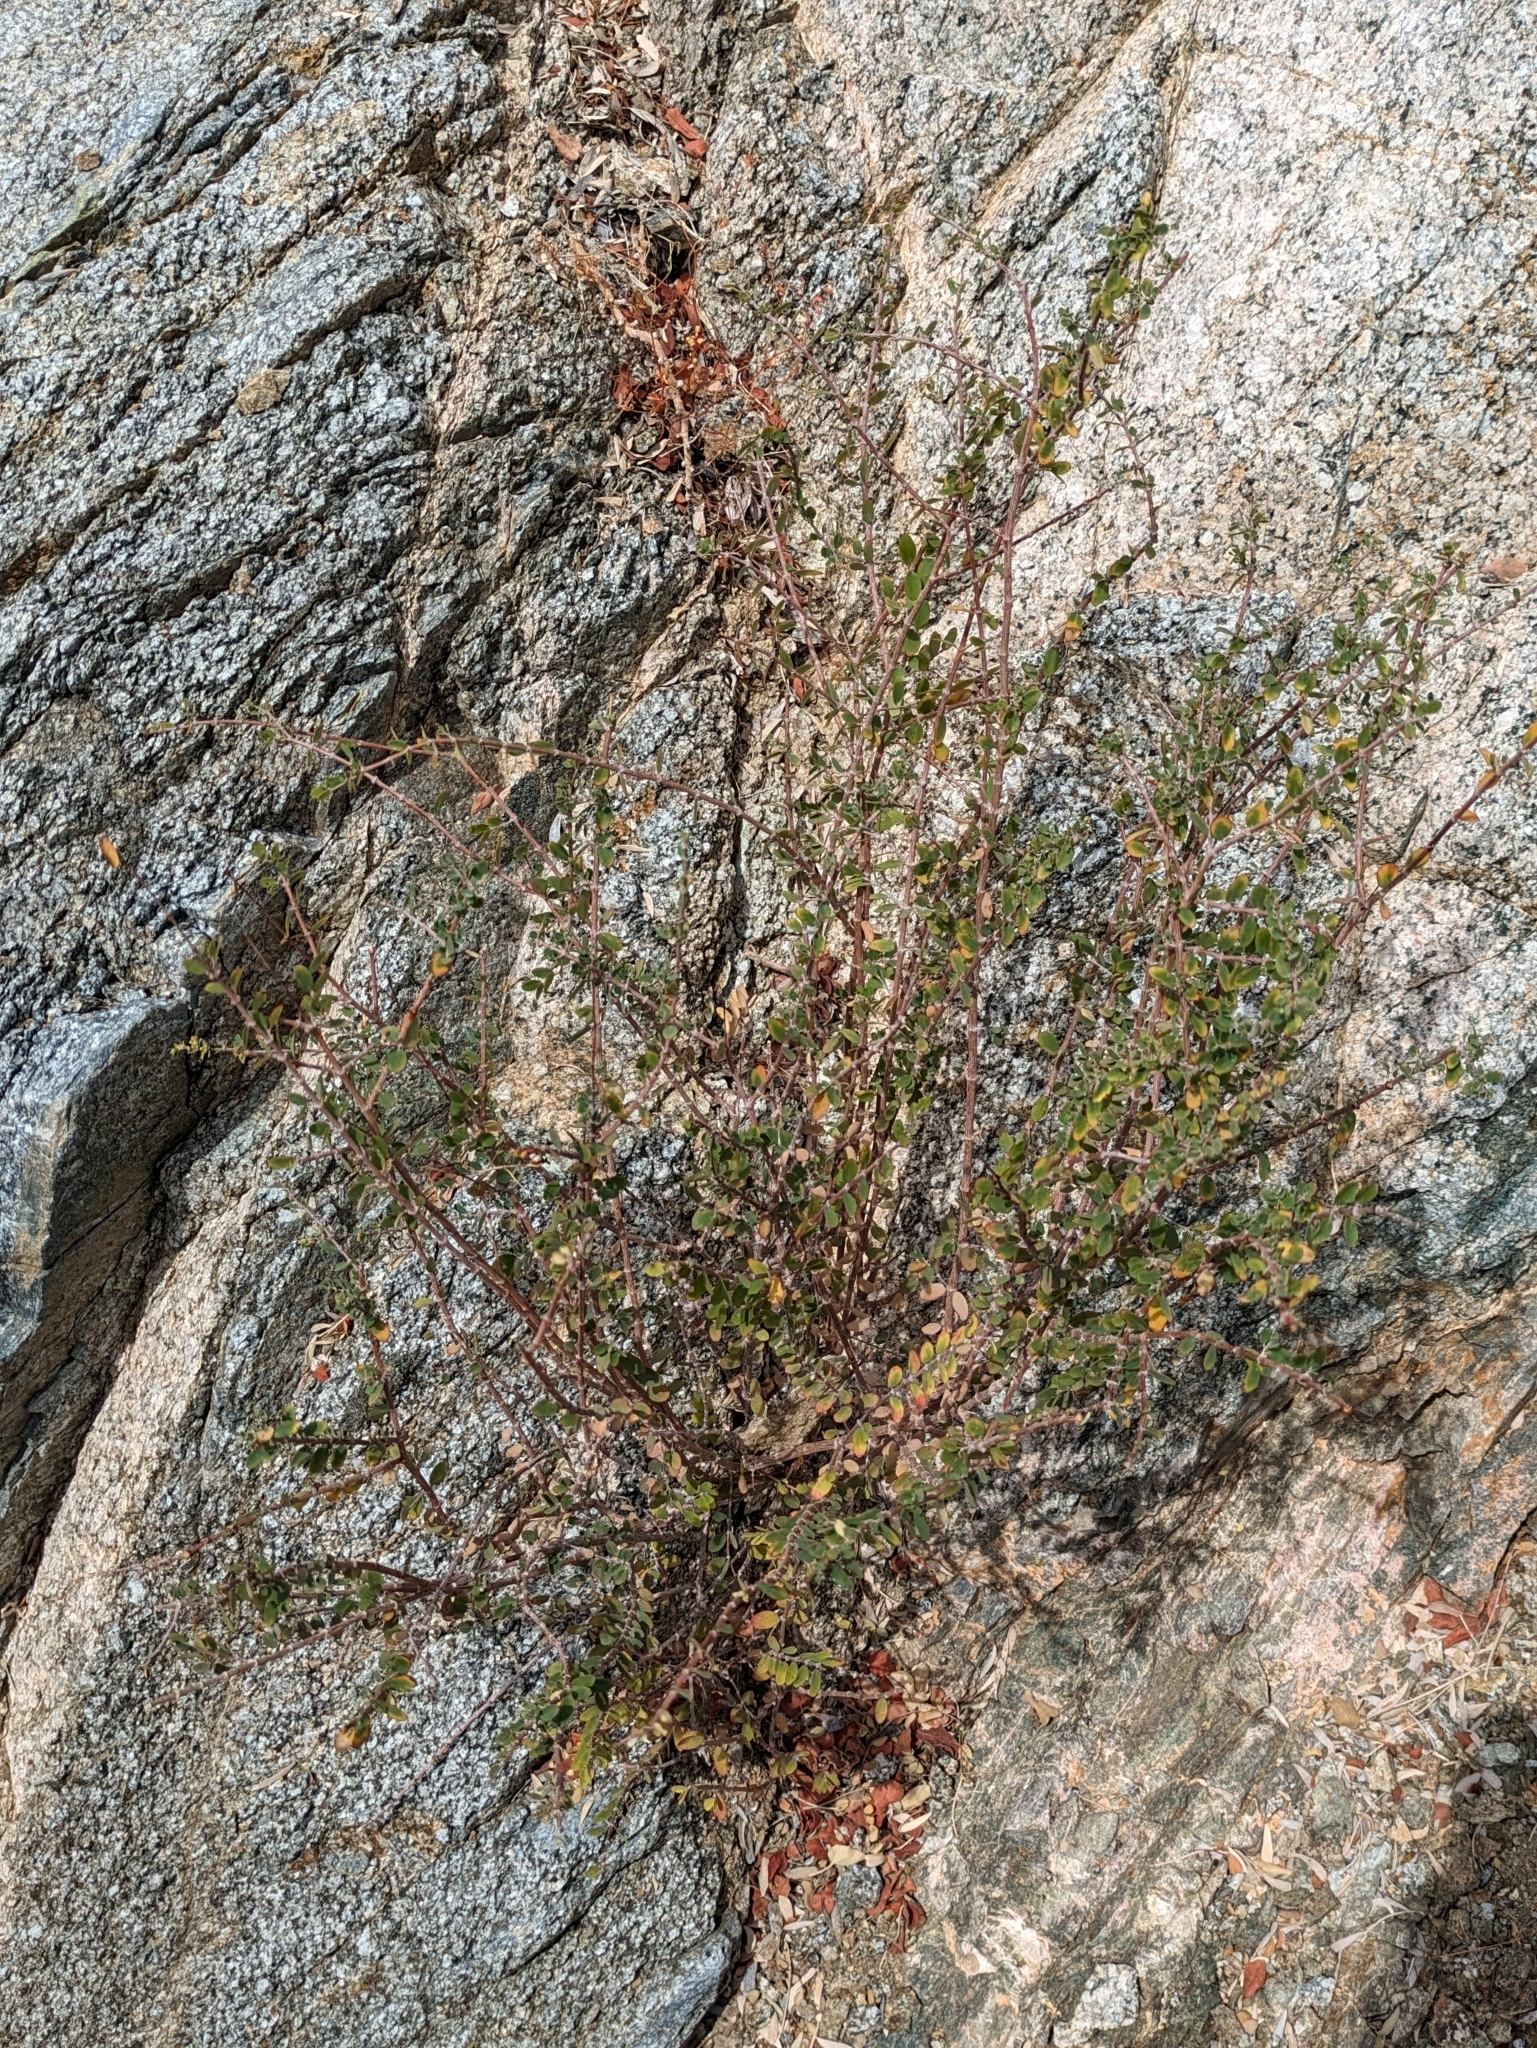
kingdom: Plantae
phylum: Tracheophyta
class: Magnoliopsida
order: Malpighiales
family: Euphorbiaceae
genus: Euphorbia
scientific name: Euphorbia magdalenae
